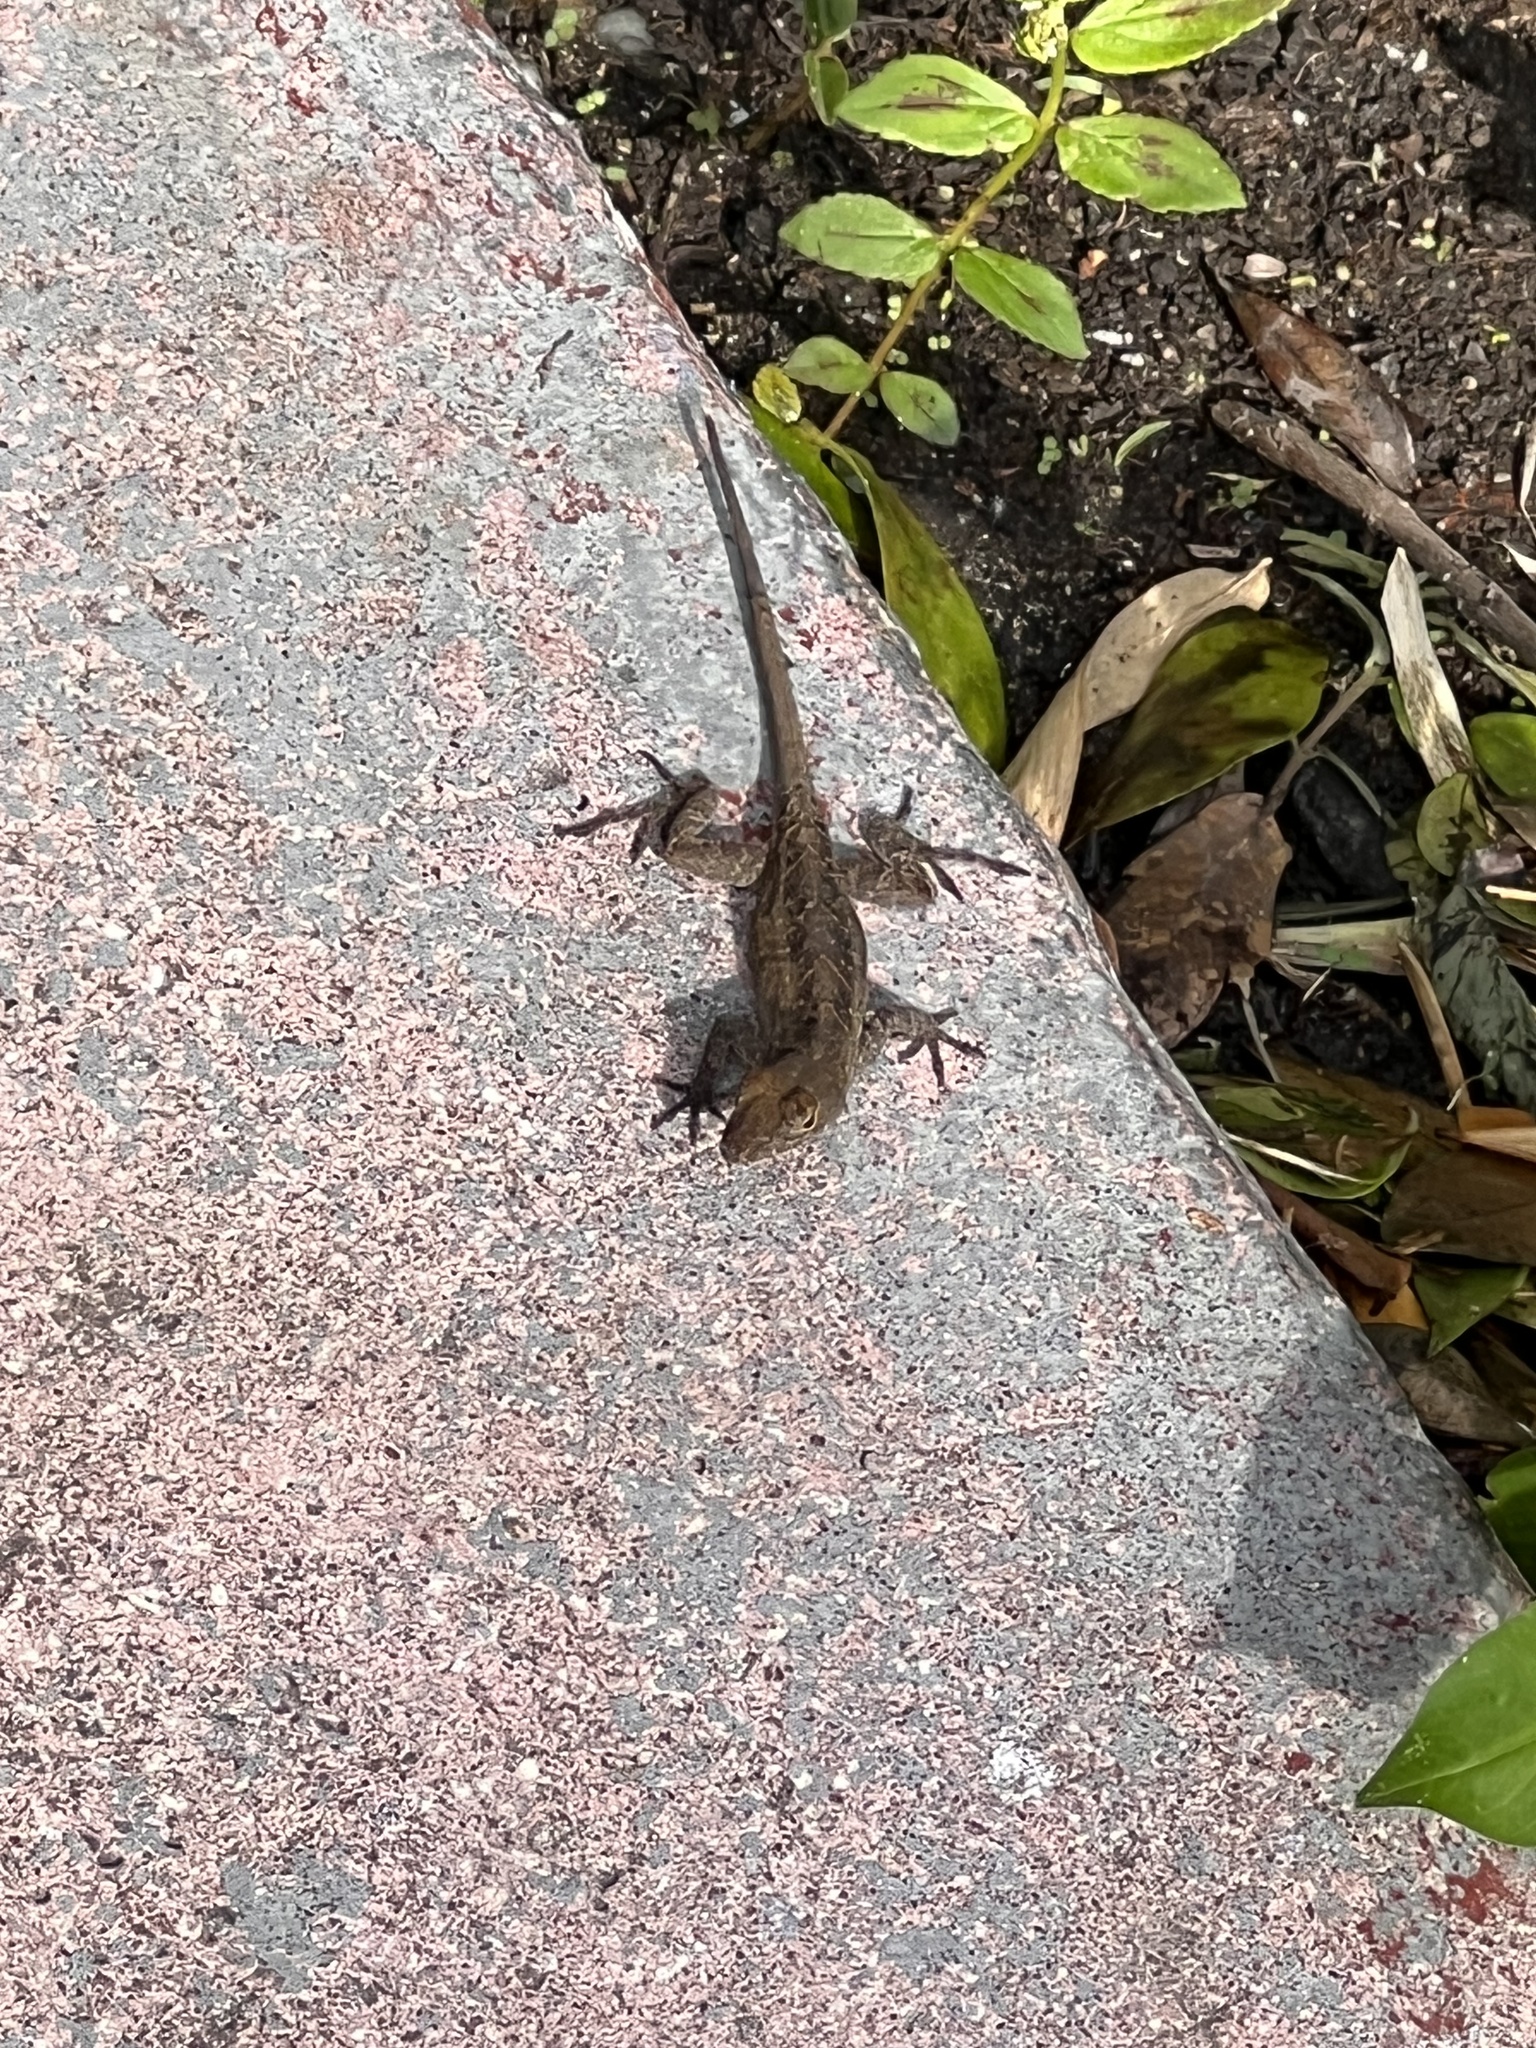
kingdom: Animalia
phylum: Chordata
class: Squamata
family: Agamidae
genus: Agama
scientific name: Agama picticauda
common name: Red-headed agama
